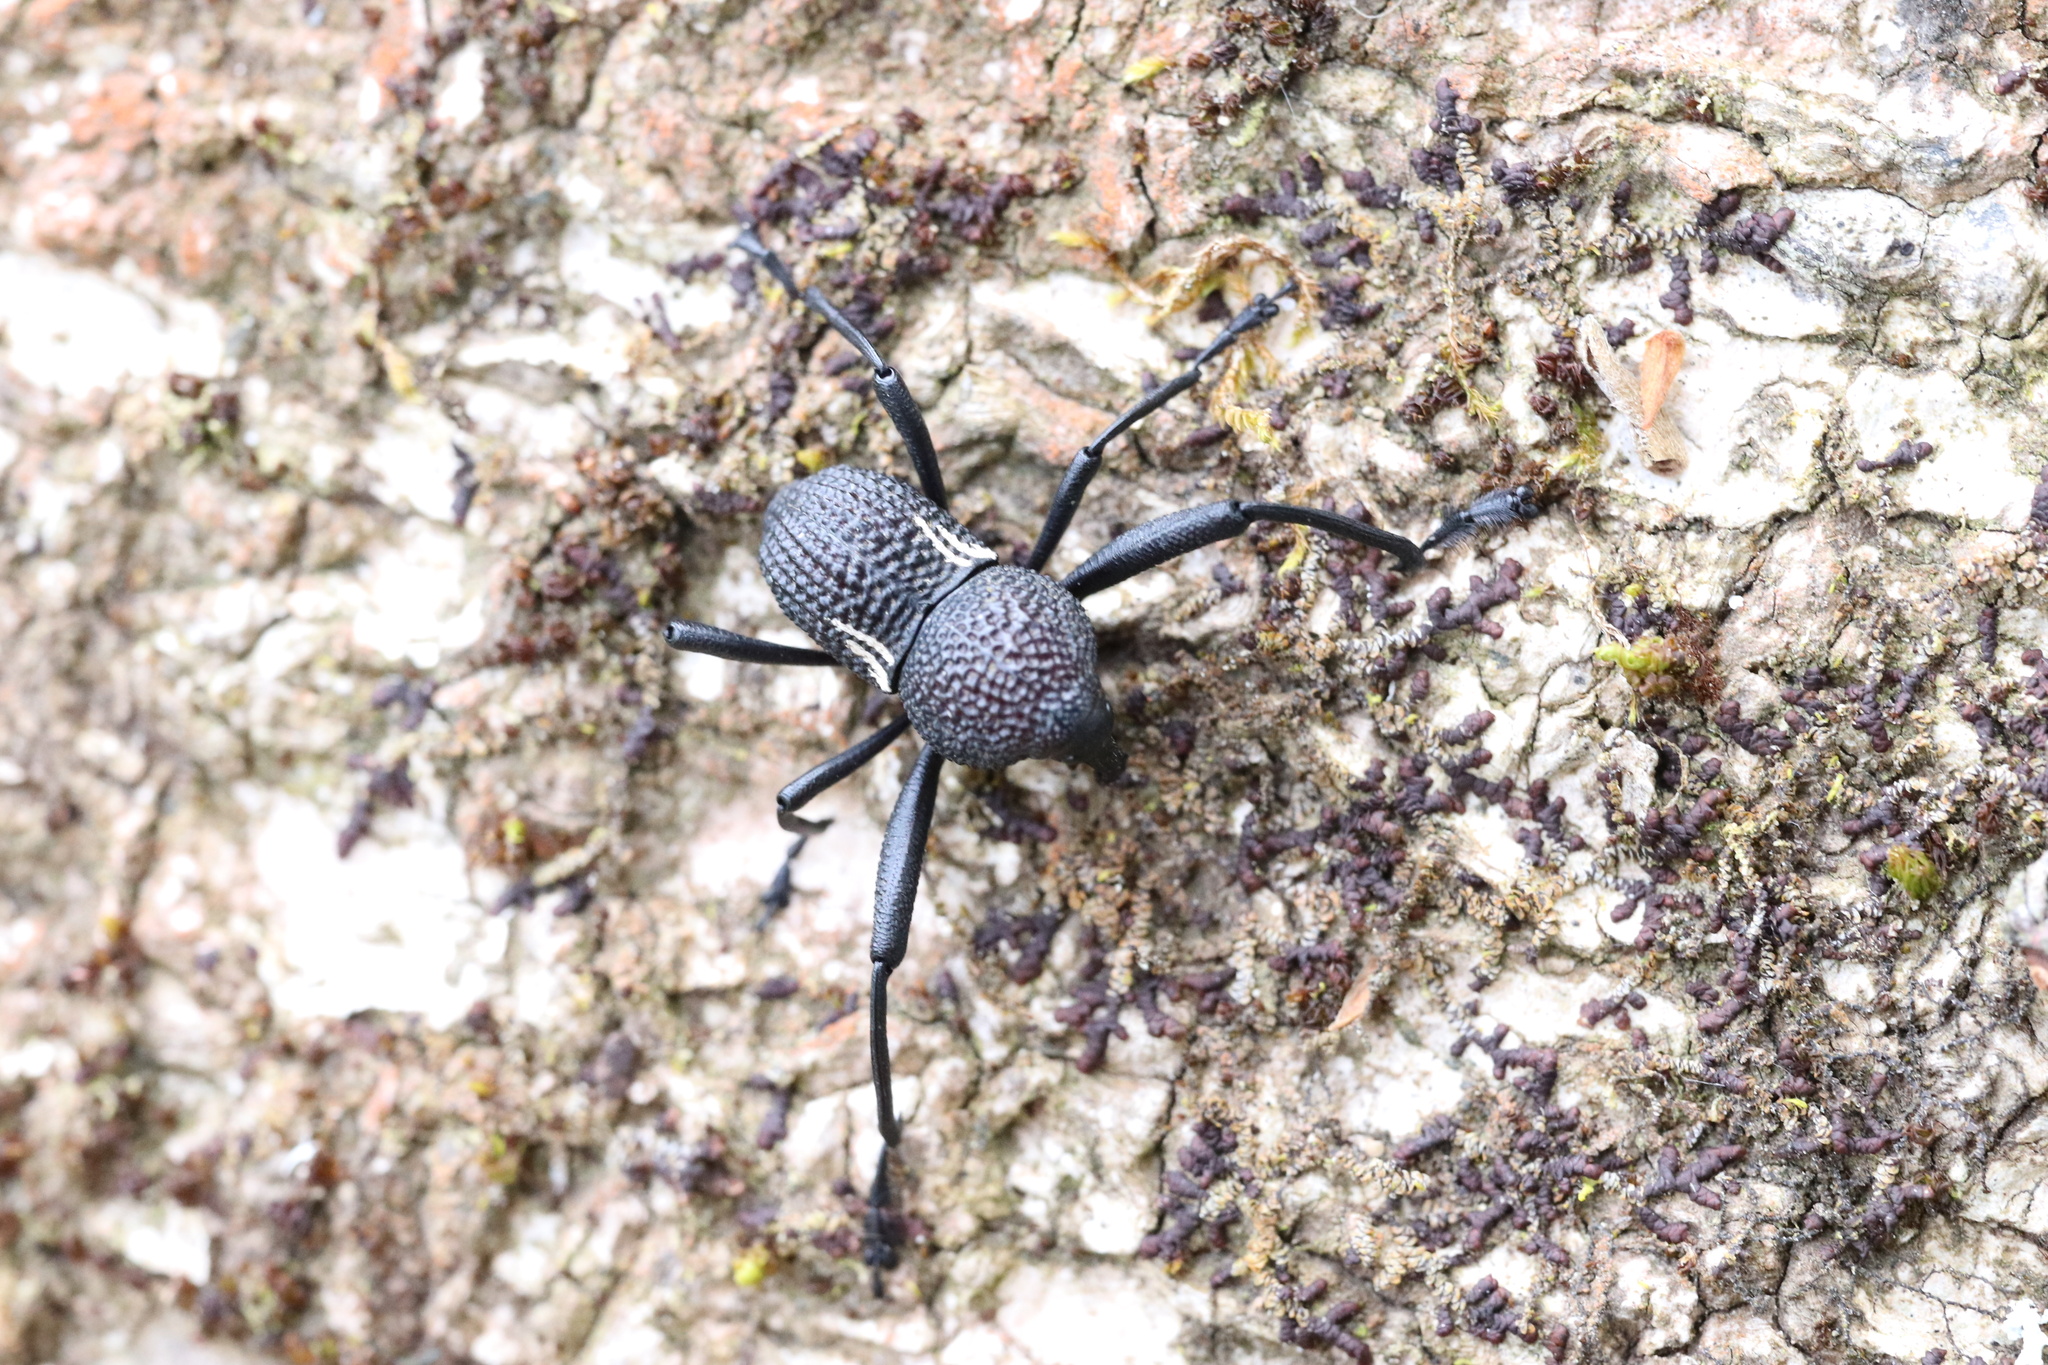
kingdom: Animalia
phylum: Arthropoda
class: Insecta
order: Coleoptera
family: Curculionidae
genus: Rhyephenes
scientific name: Rhyephenes humeralis
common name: Araè±ita chilena del pino
